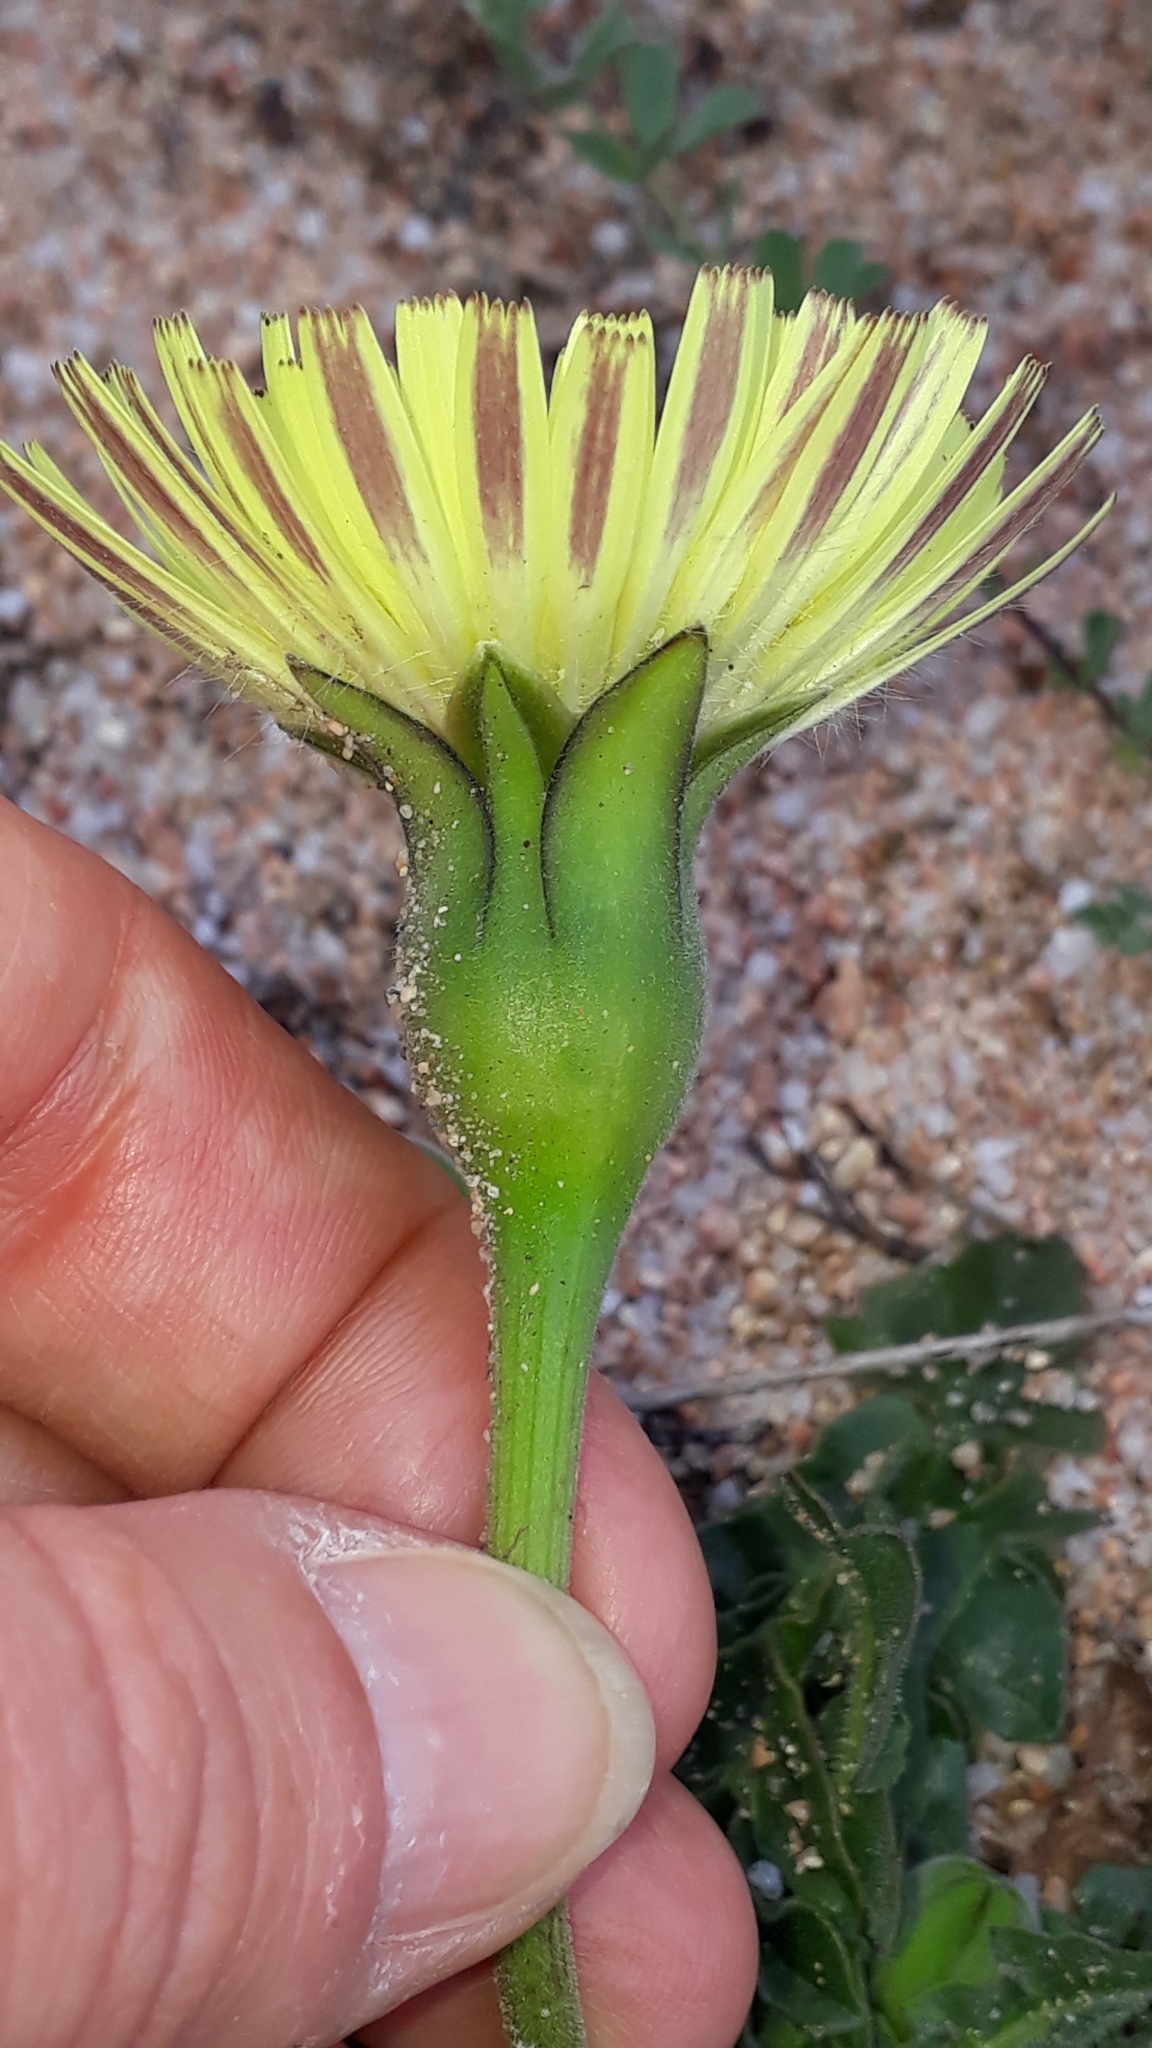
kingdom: Plantae
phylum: Tracheophyta
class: Magnoliopsida
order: Asterales
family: Asteraceae
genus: Urospermum
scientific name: Urospermum dalechampii
